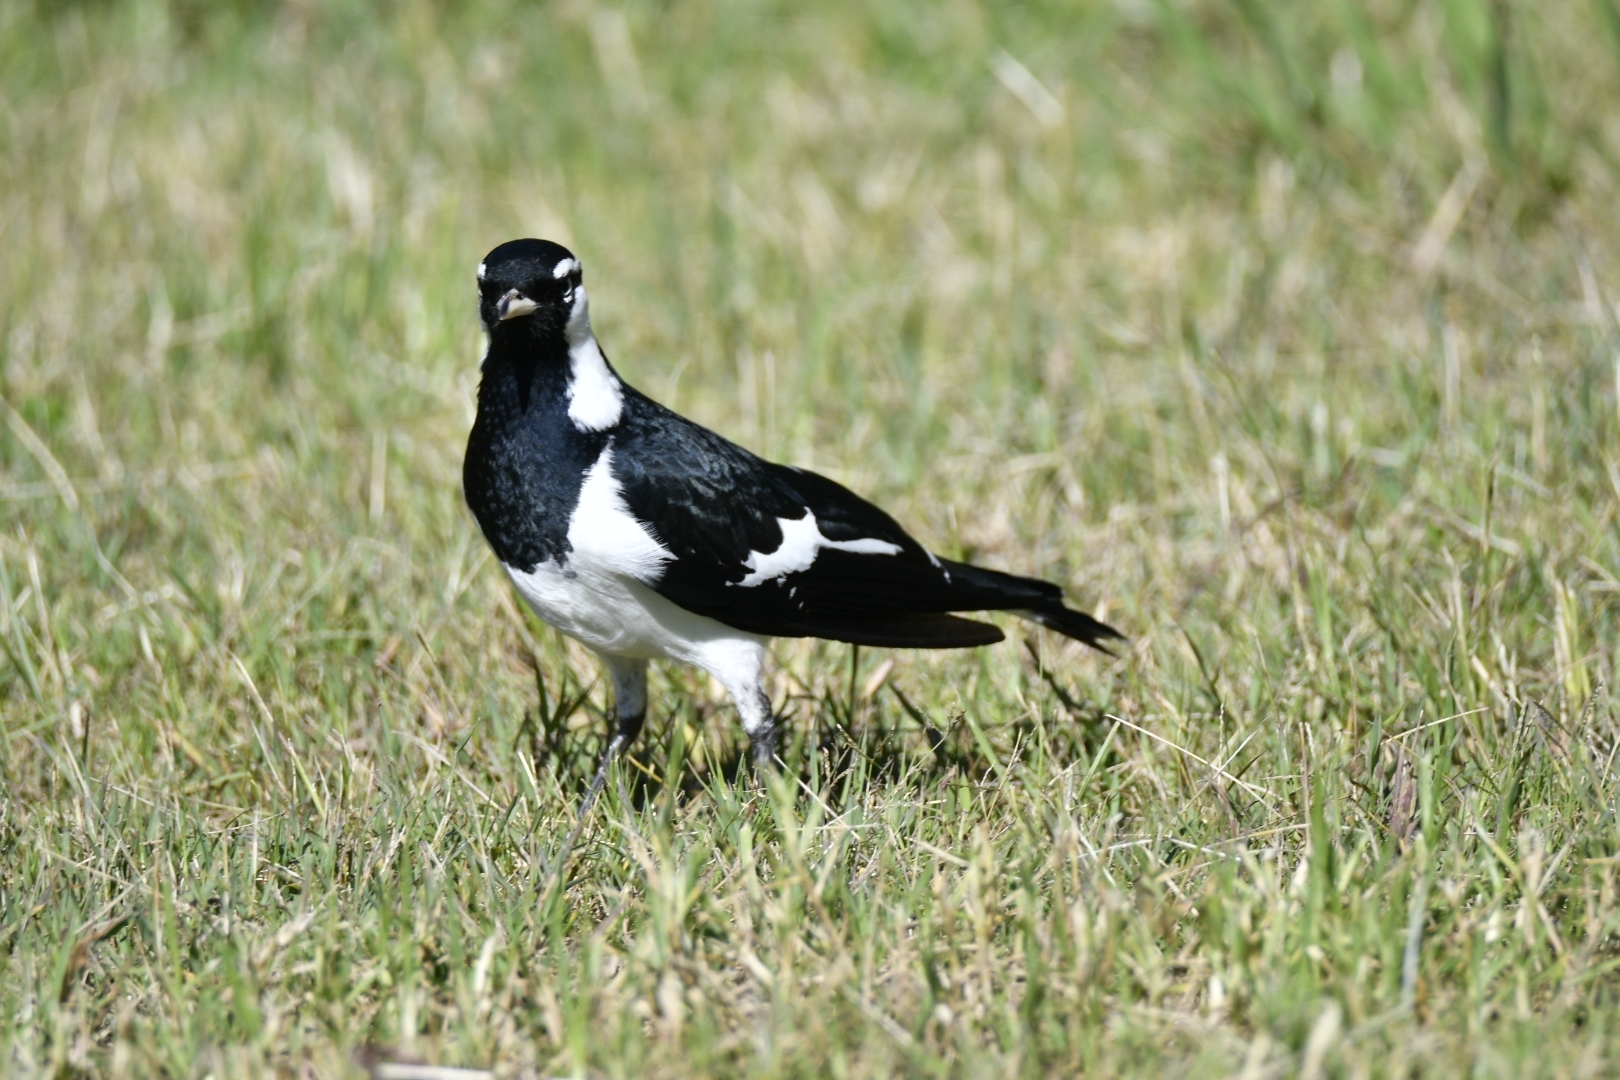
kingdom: Animalia
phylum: Chordata
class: Aves
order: Passeriformes
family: Monarchidae
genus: Grallina
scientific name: Grallina cyanoleuca
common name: Magpie-lark
